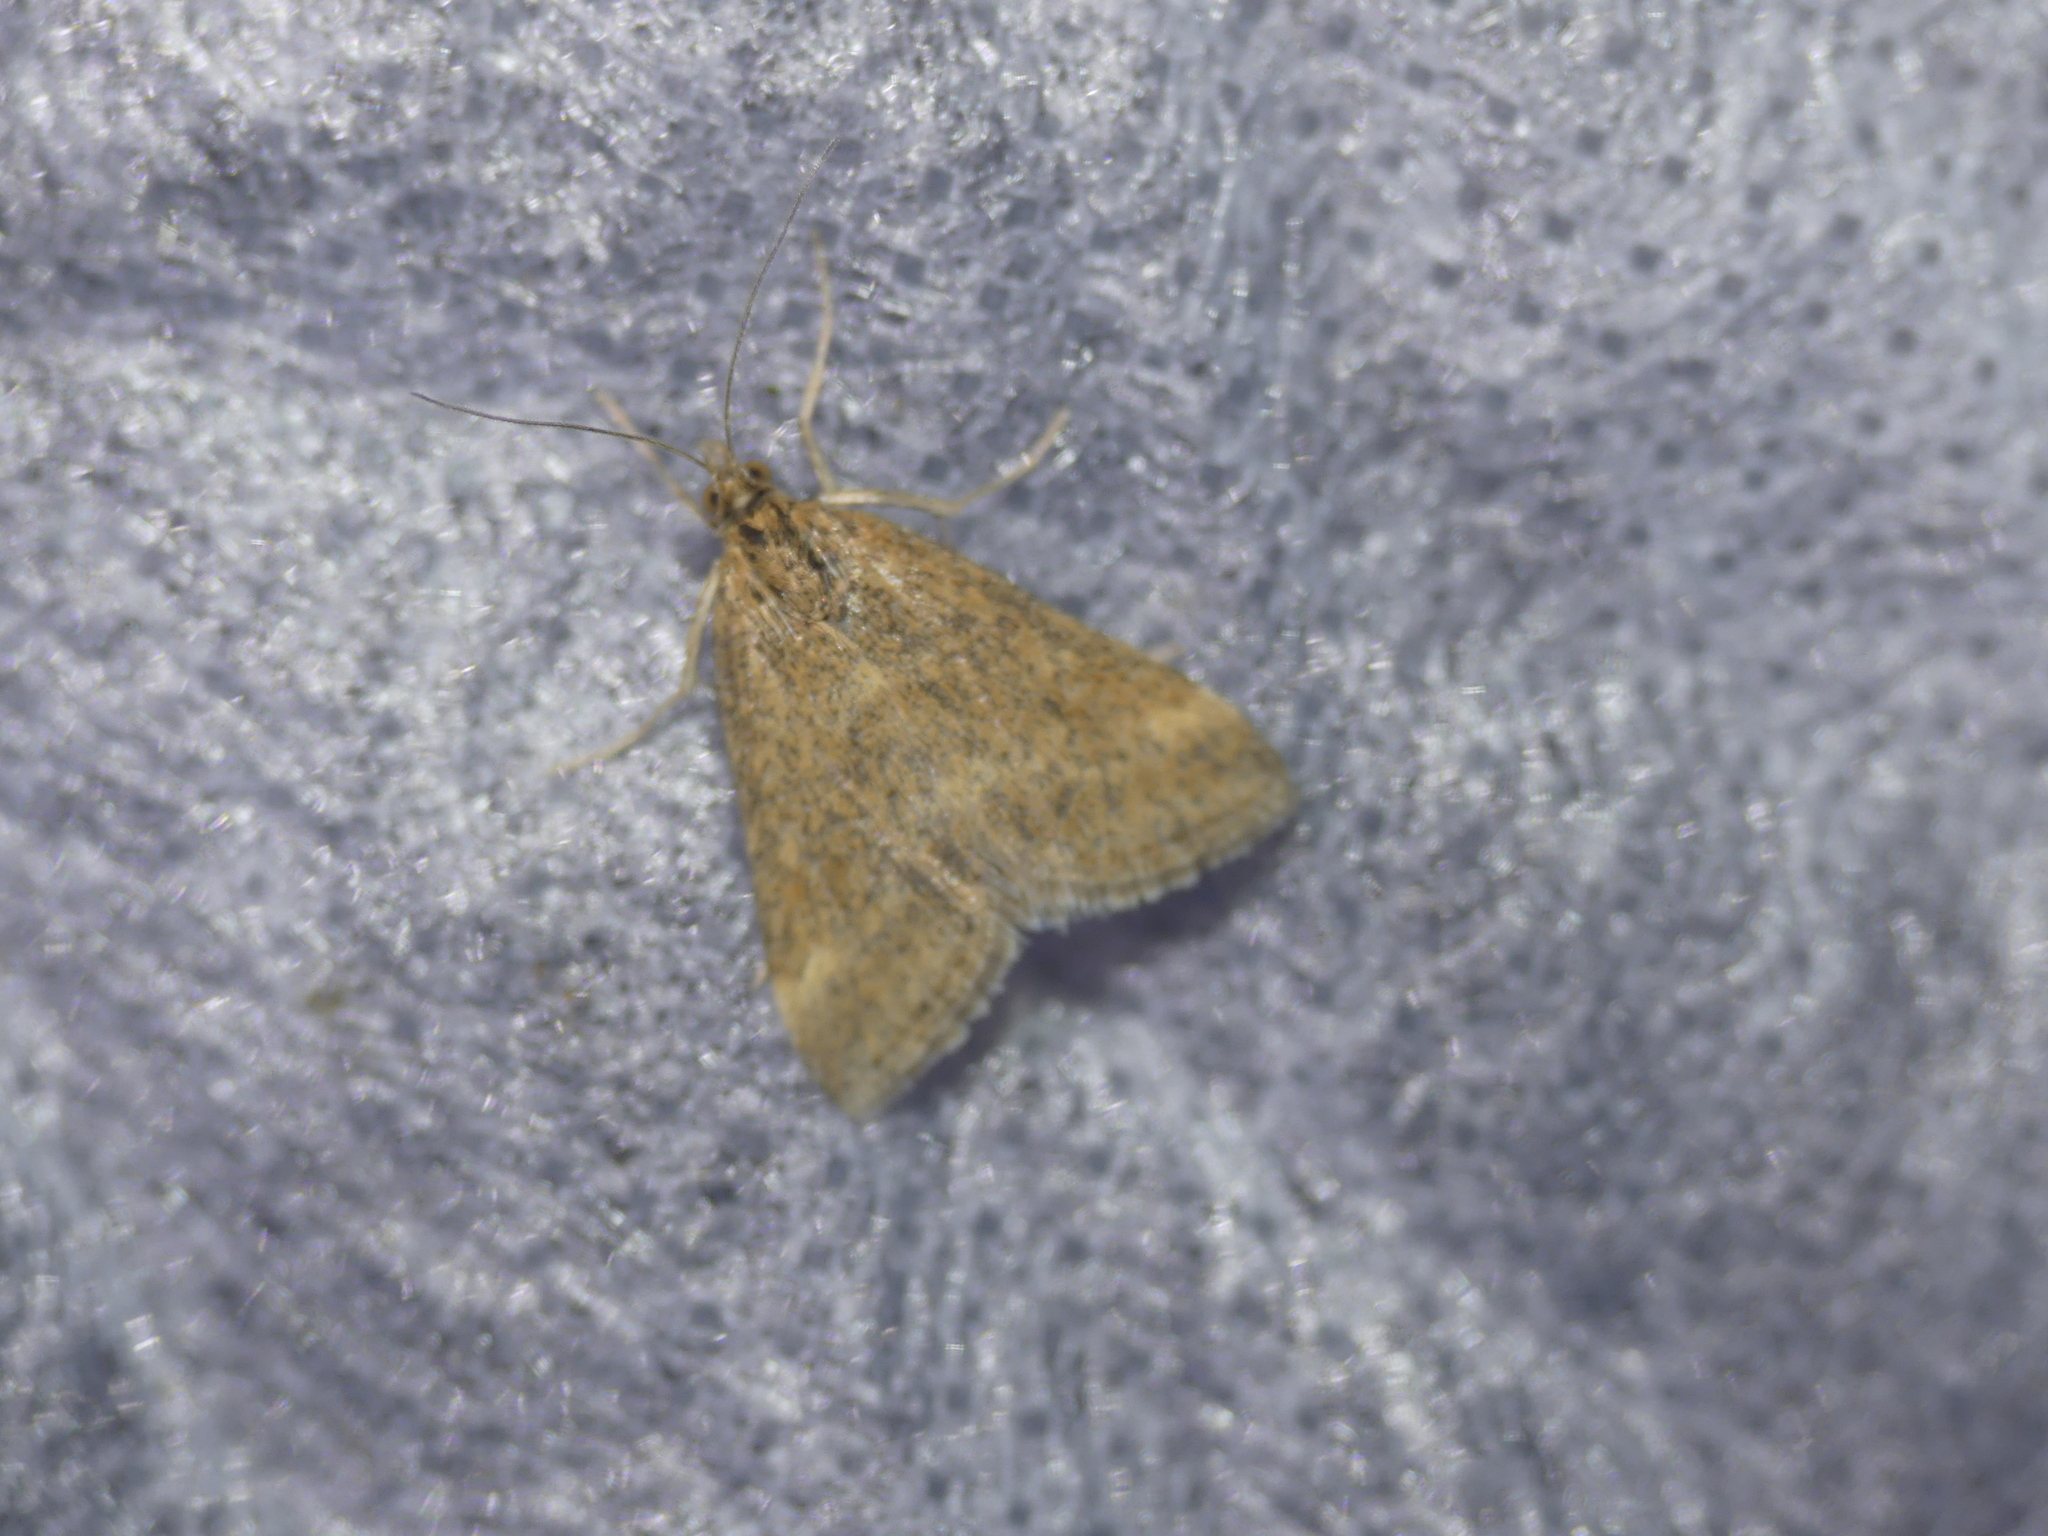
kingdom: Animalia
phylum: Arthropoda
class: Insecta
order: Lepidoptera
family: Crambidae
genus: Pyrausta
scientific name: Pyrausta despicata
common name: Straw-barred pearl
